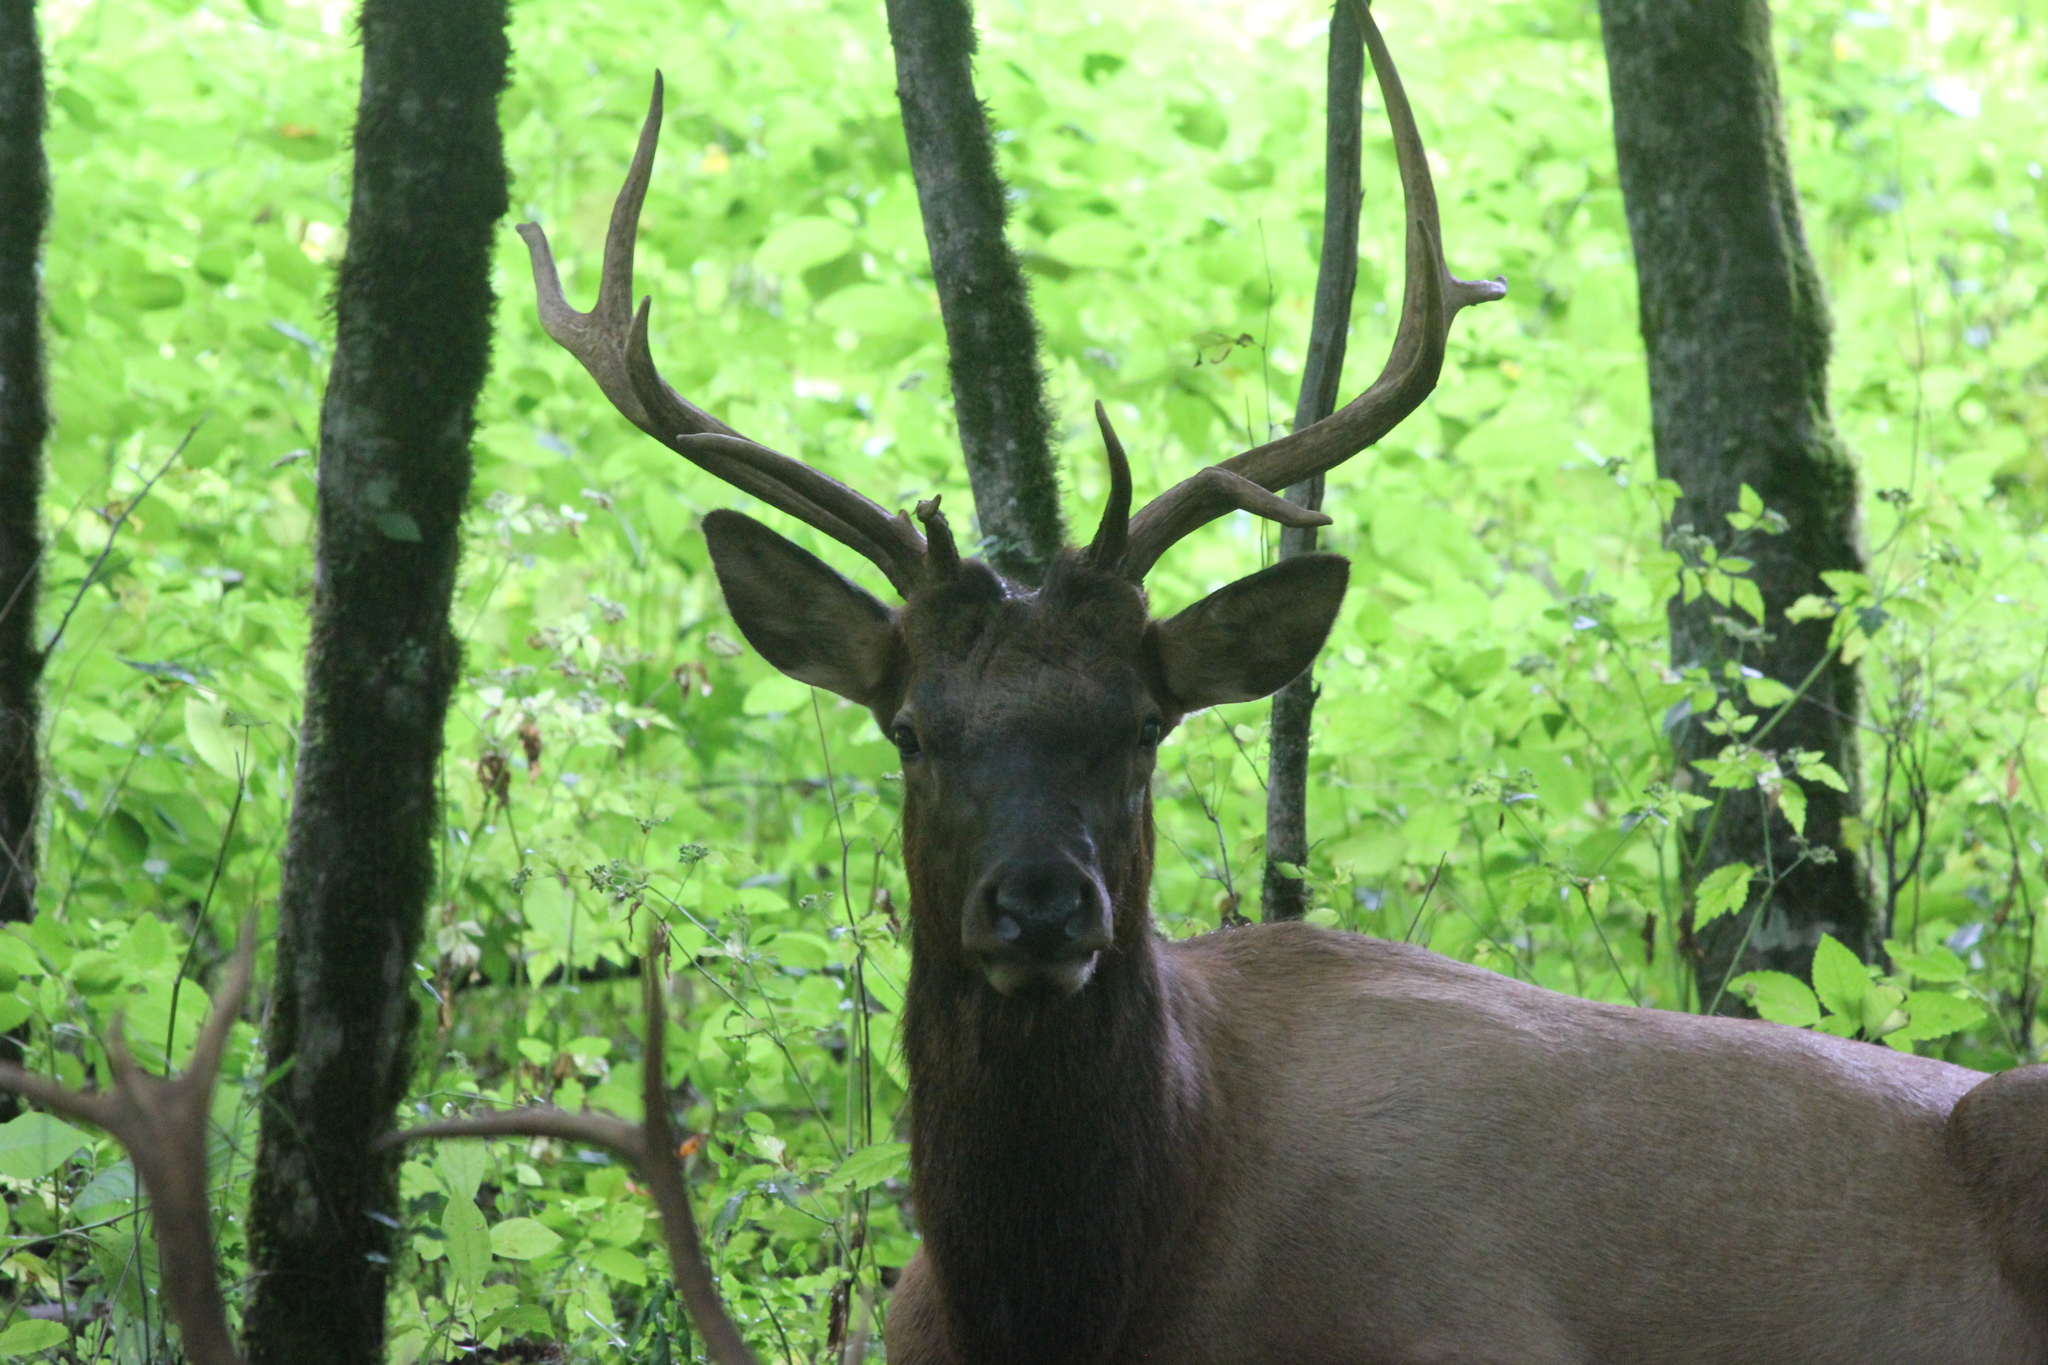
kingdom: Animalia
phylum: Chordata
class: Mammalia
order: Artiodactyla
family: Cervidae
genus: Cervus
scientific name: Cervus elaphus
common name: Red deer
